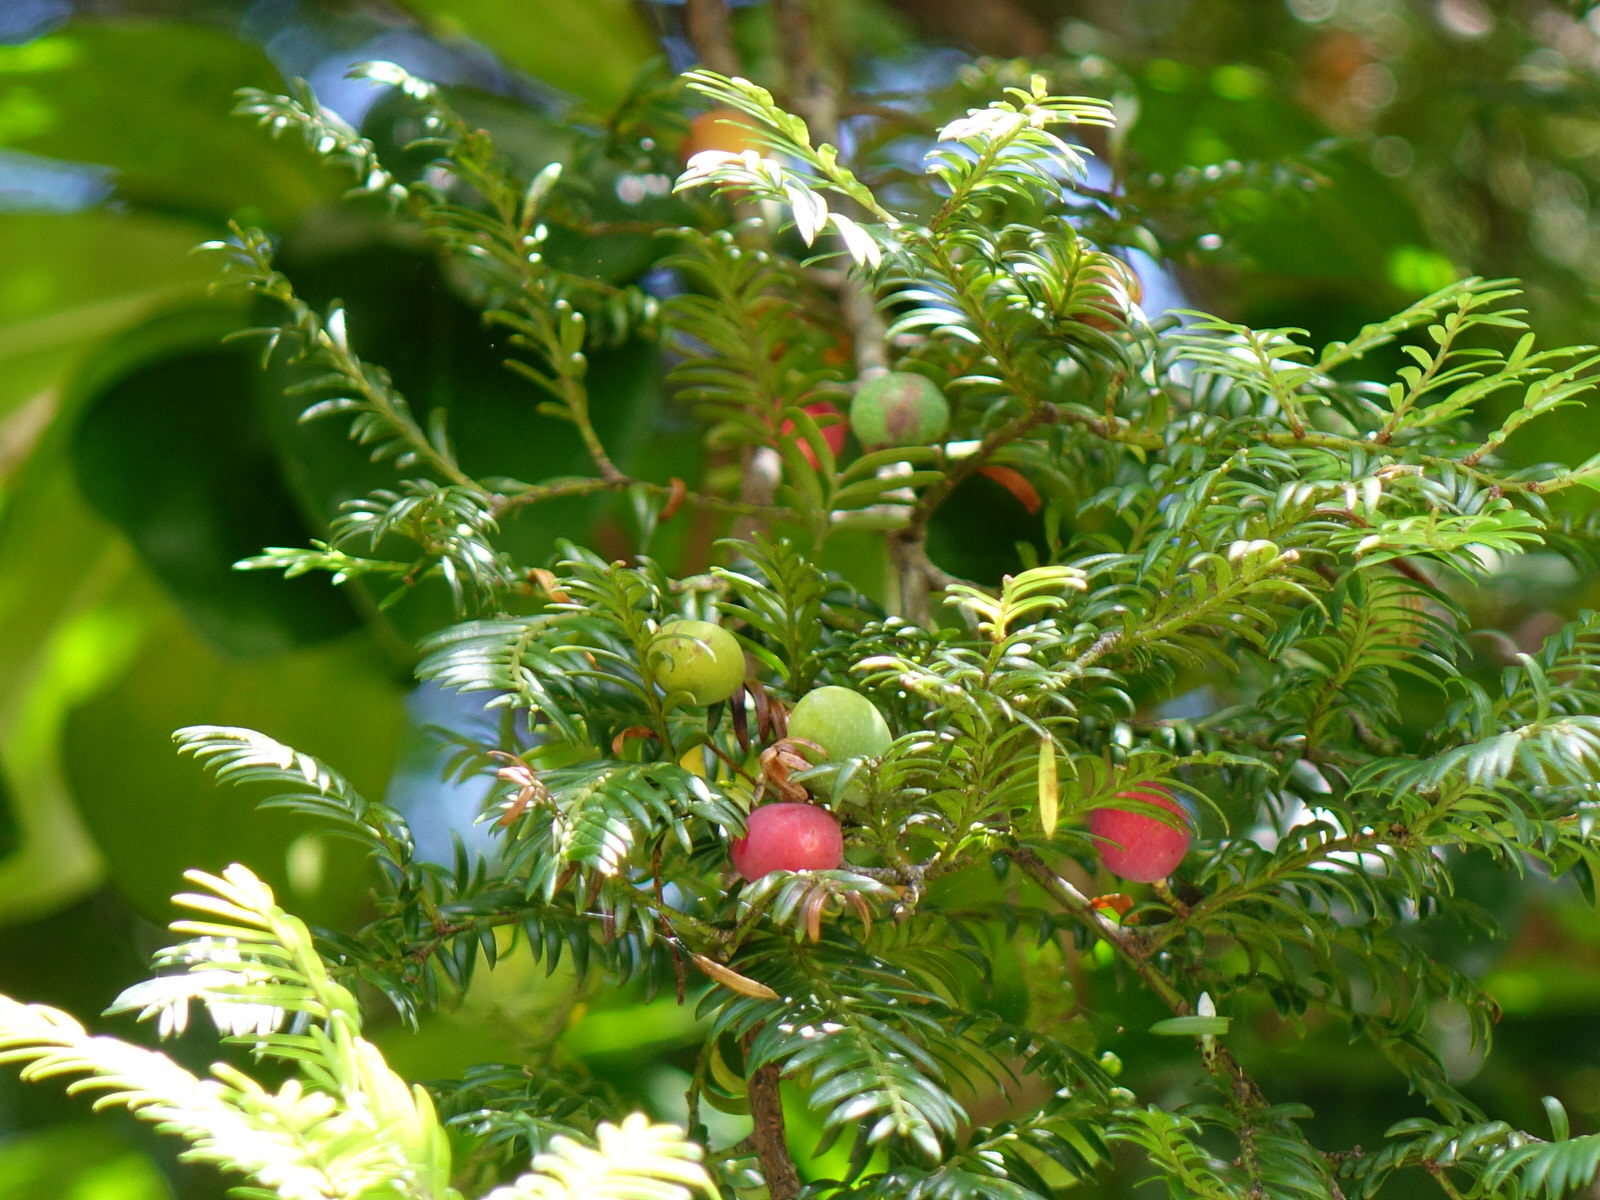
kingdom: Animalia
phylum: Chordata
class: Aves
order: Columbiformes
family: Columbidae
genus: Hemiphaga
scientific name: Hemiphaga novaeseelandiae
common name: New zealand pigeon
